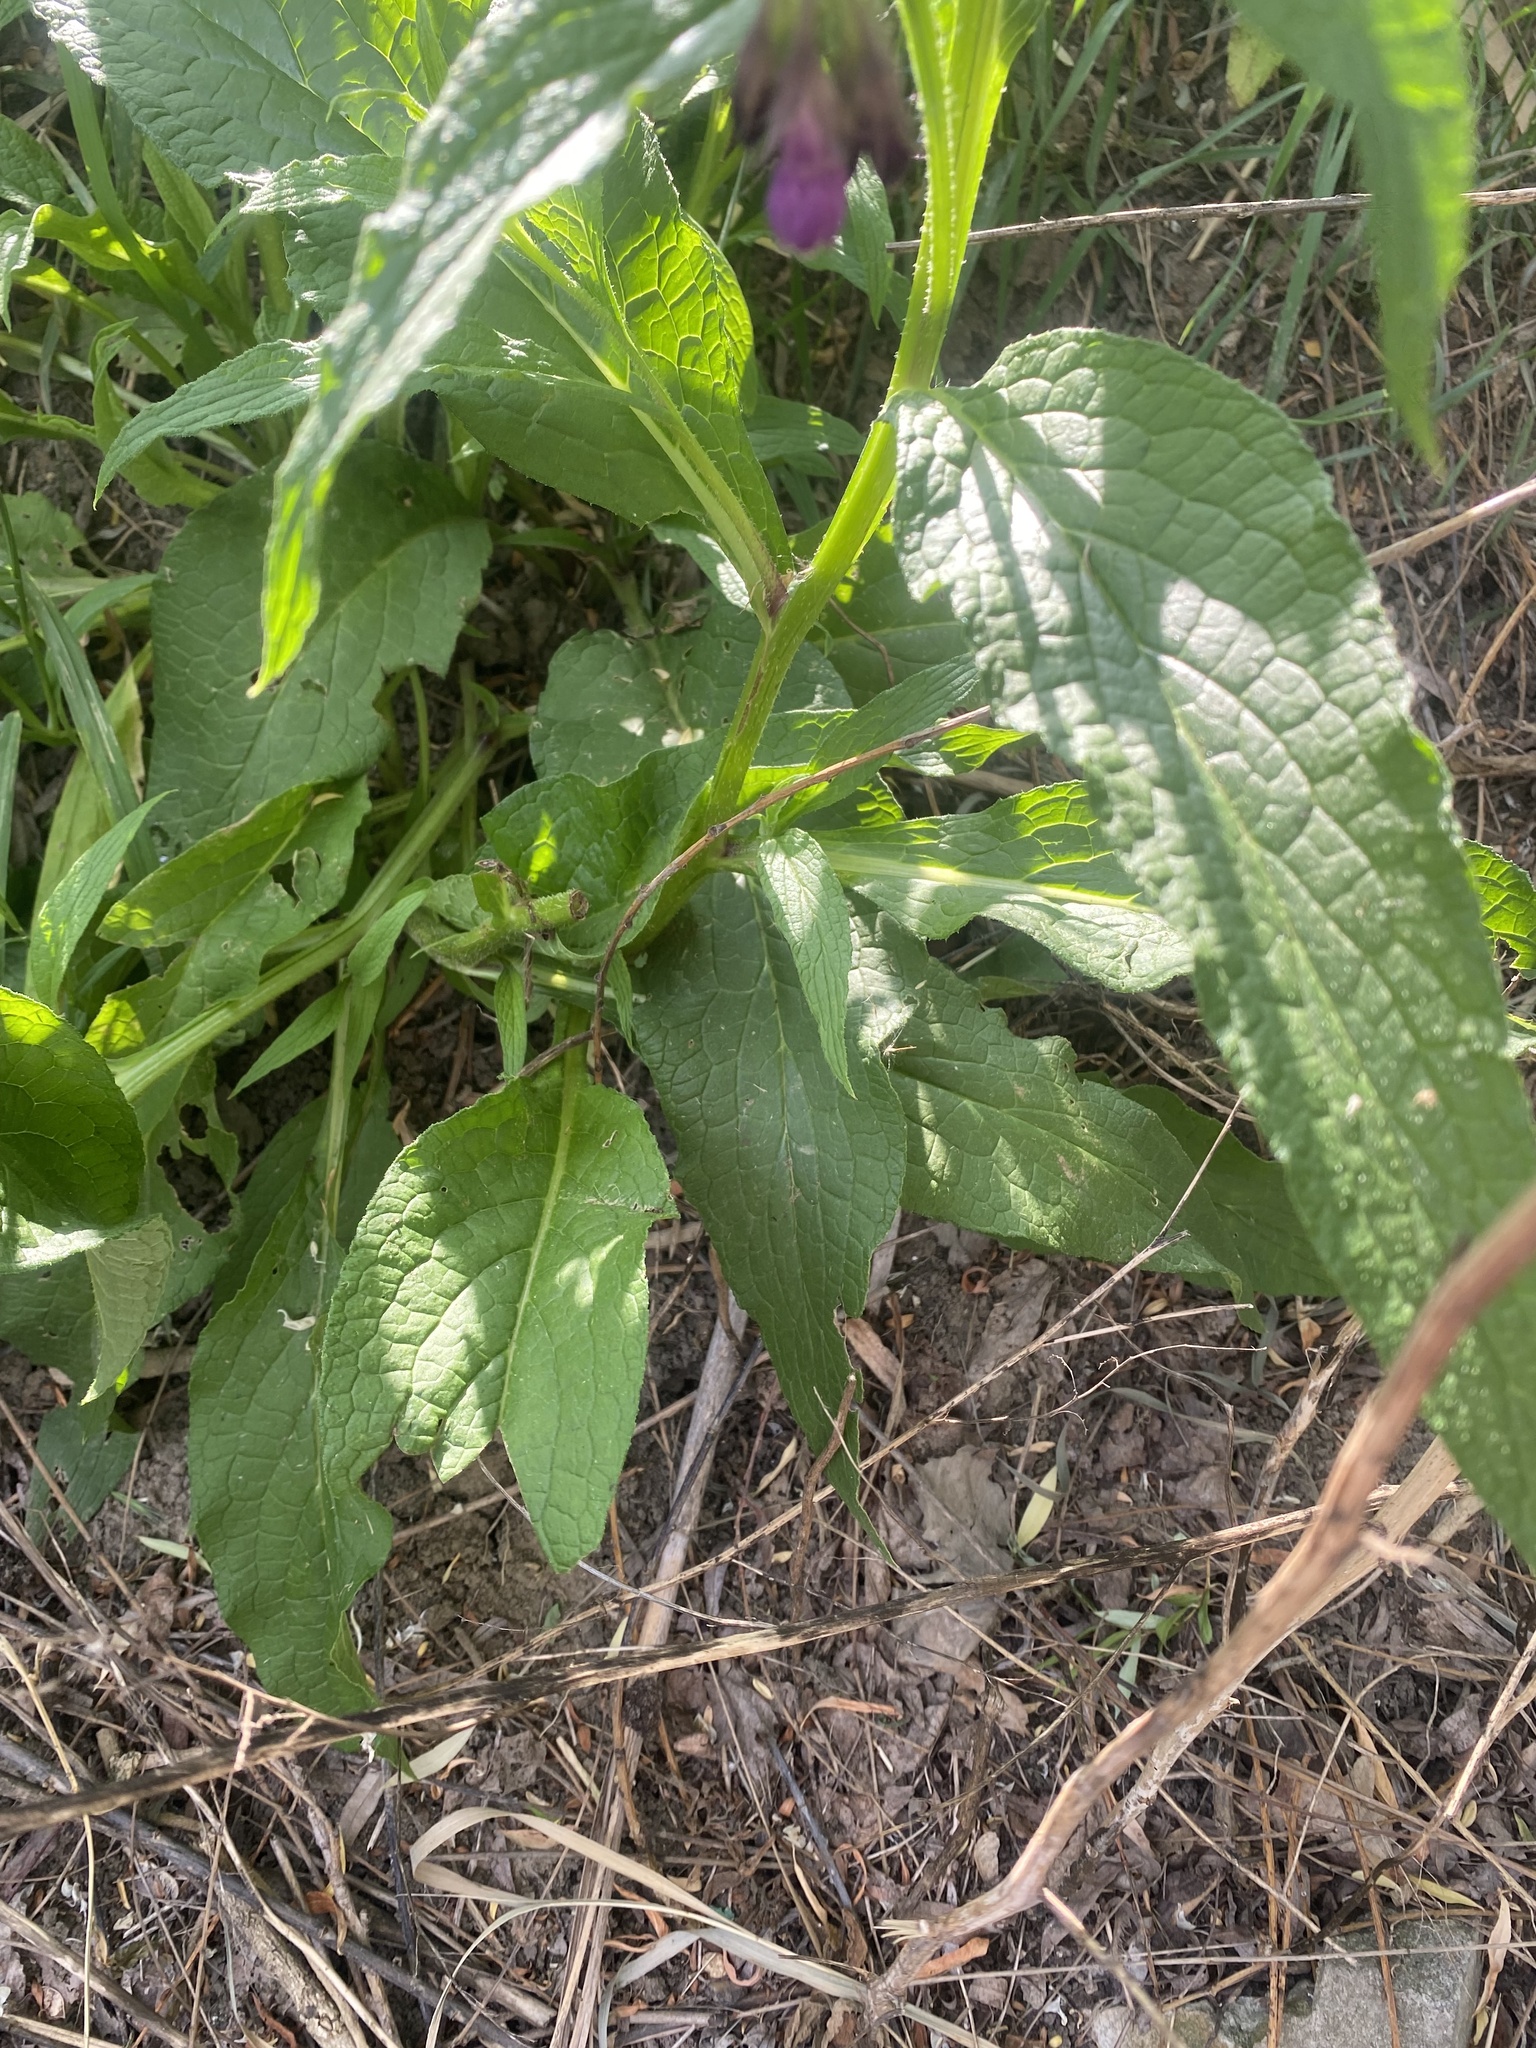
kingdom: Plantae
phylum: Tracheophyta
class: Magnoliopsida
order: Boraginales
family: Boraginaceae
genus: Symphytum
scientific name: Symphytum officinale
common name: Common comfrey
